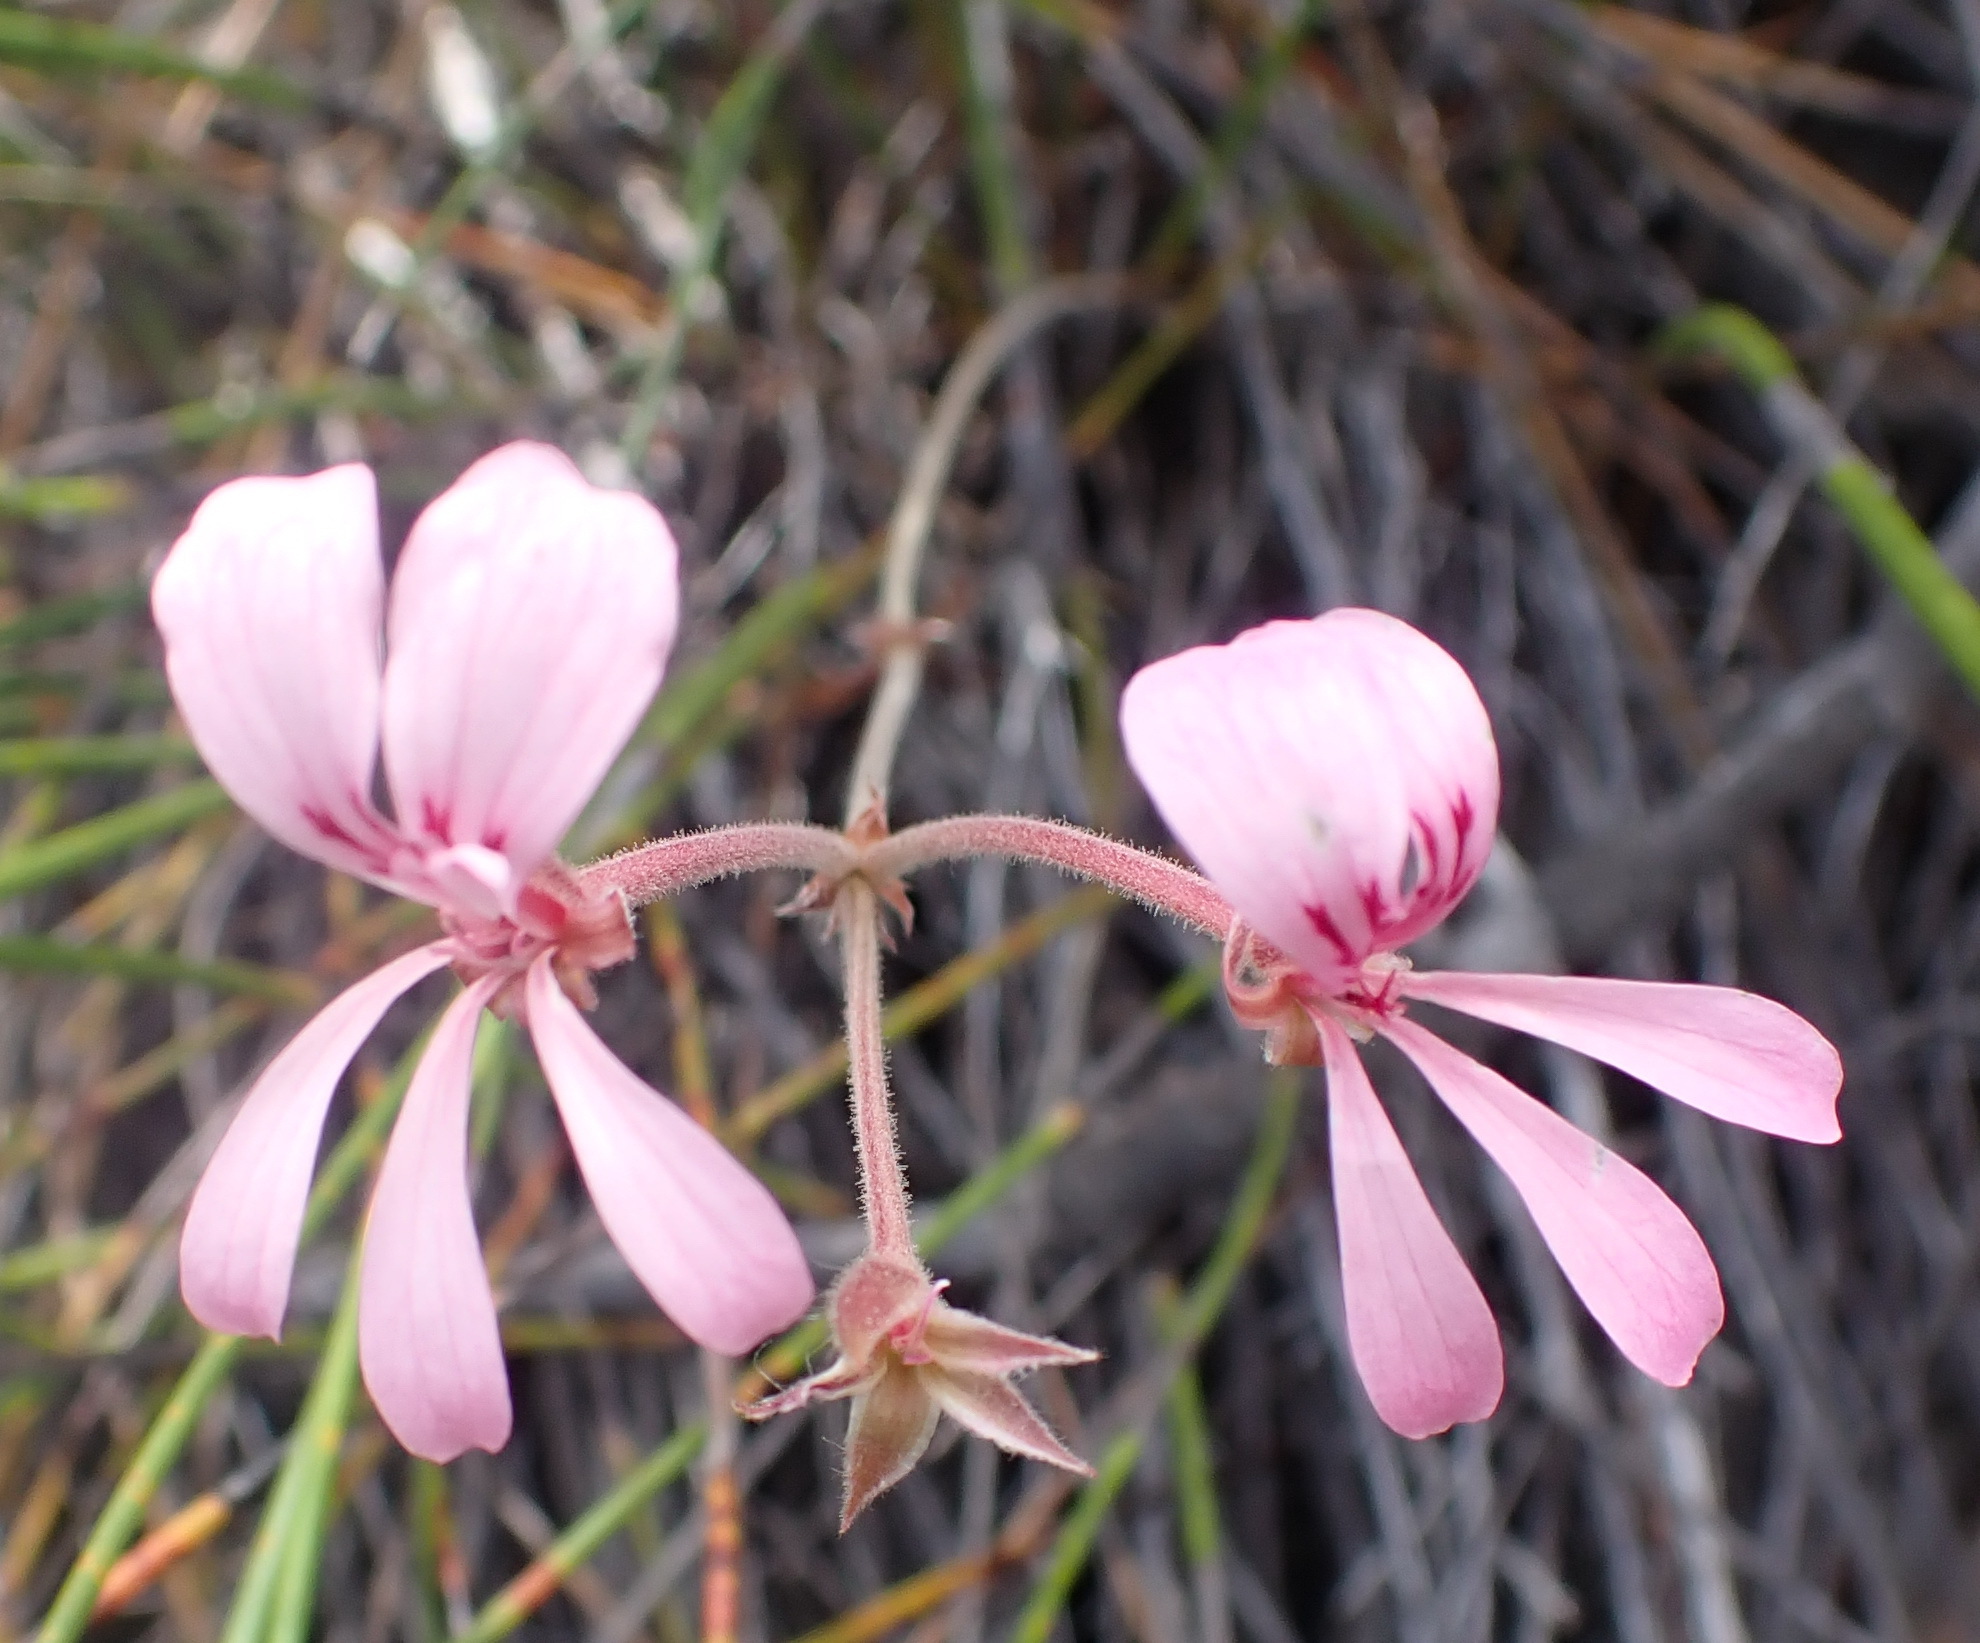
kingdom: Plantae
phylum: Tracheophyta
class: Magnoliopsida
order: Geraniales
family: Geraniaceae
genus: Pelargonium
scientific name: Pelargonium carneum
